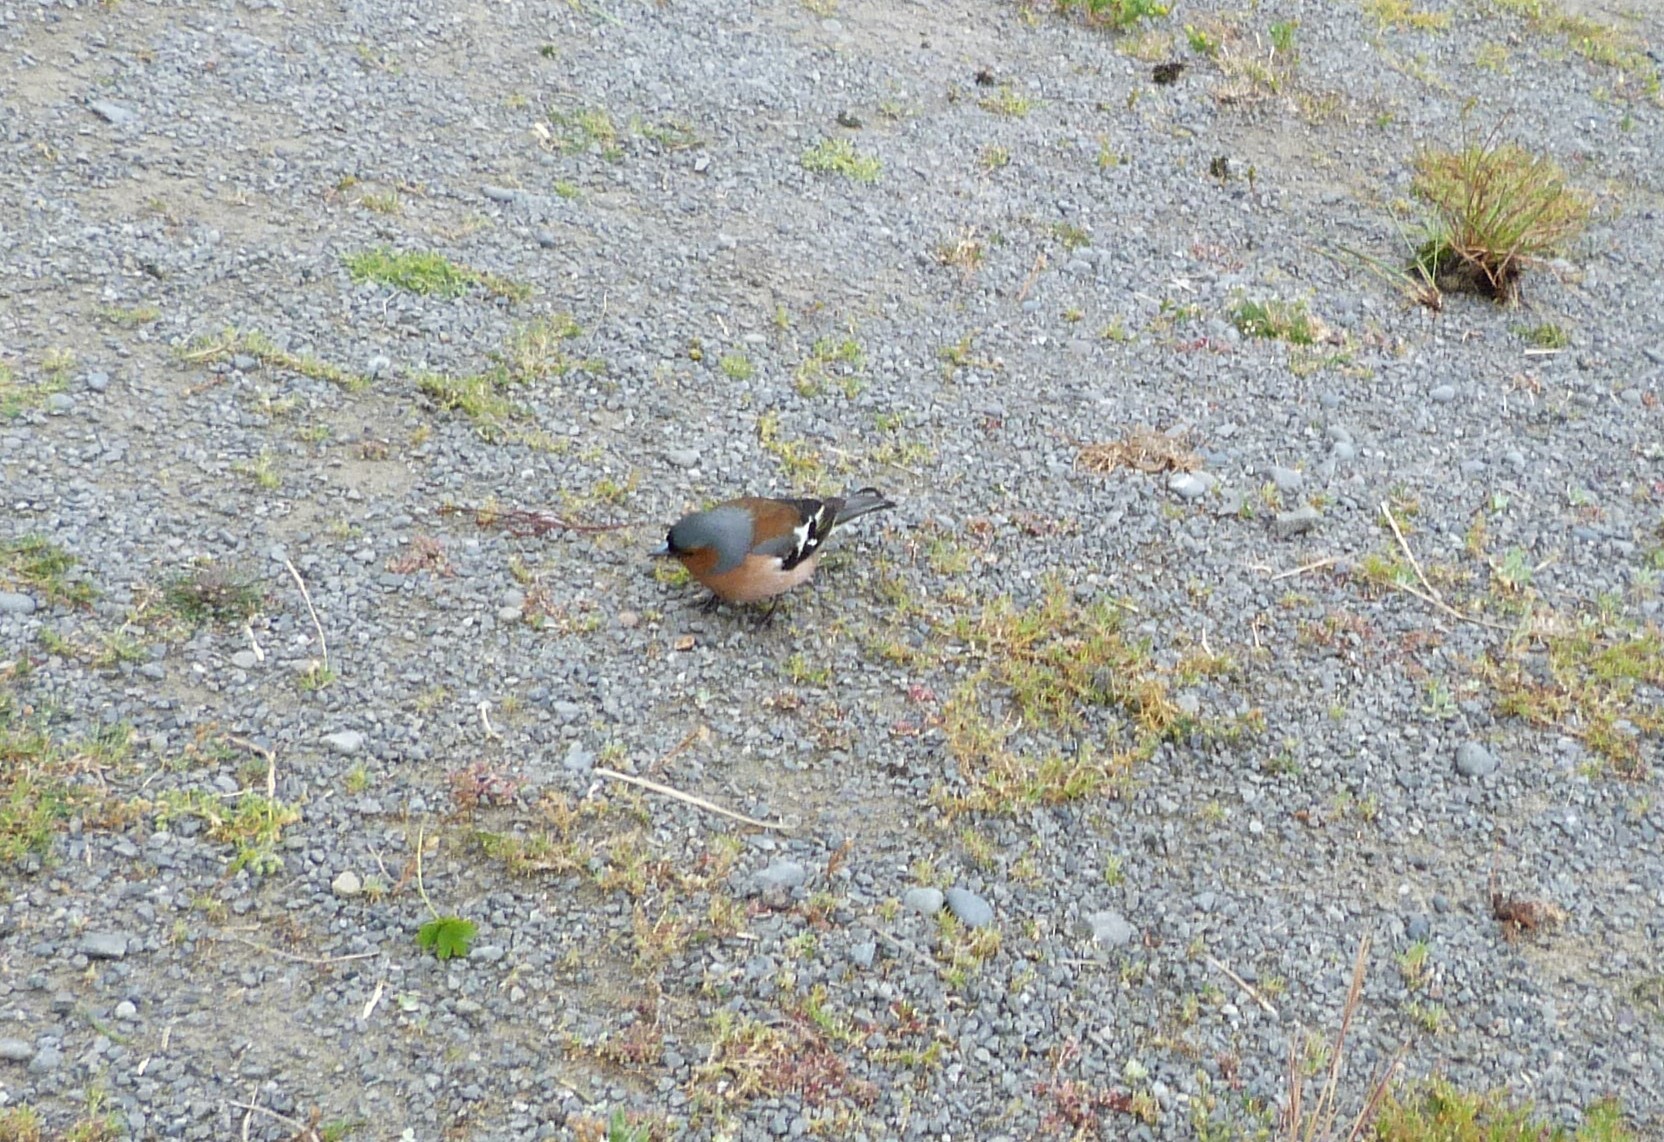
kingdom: Animalia
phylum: Chordata
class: Aves
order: Passeriformes
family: Fringillidae
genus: Fringilla
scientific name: Fringilla coelebs
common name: Common chaffinch
